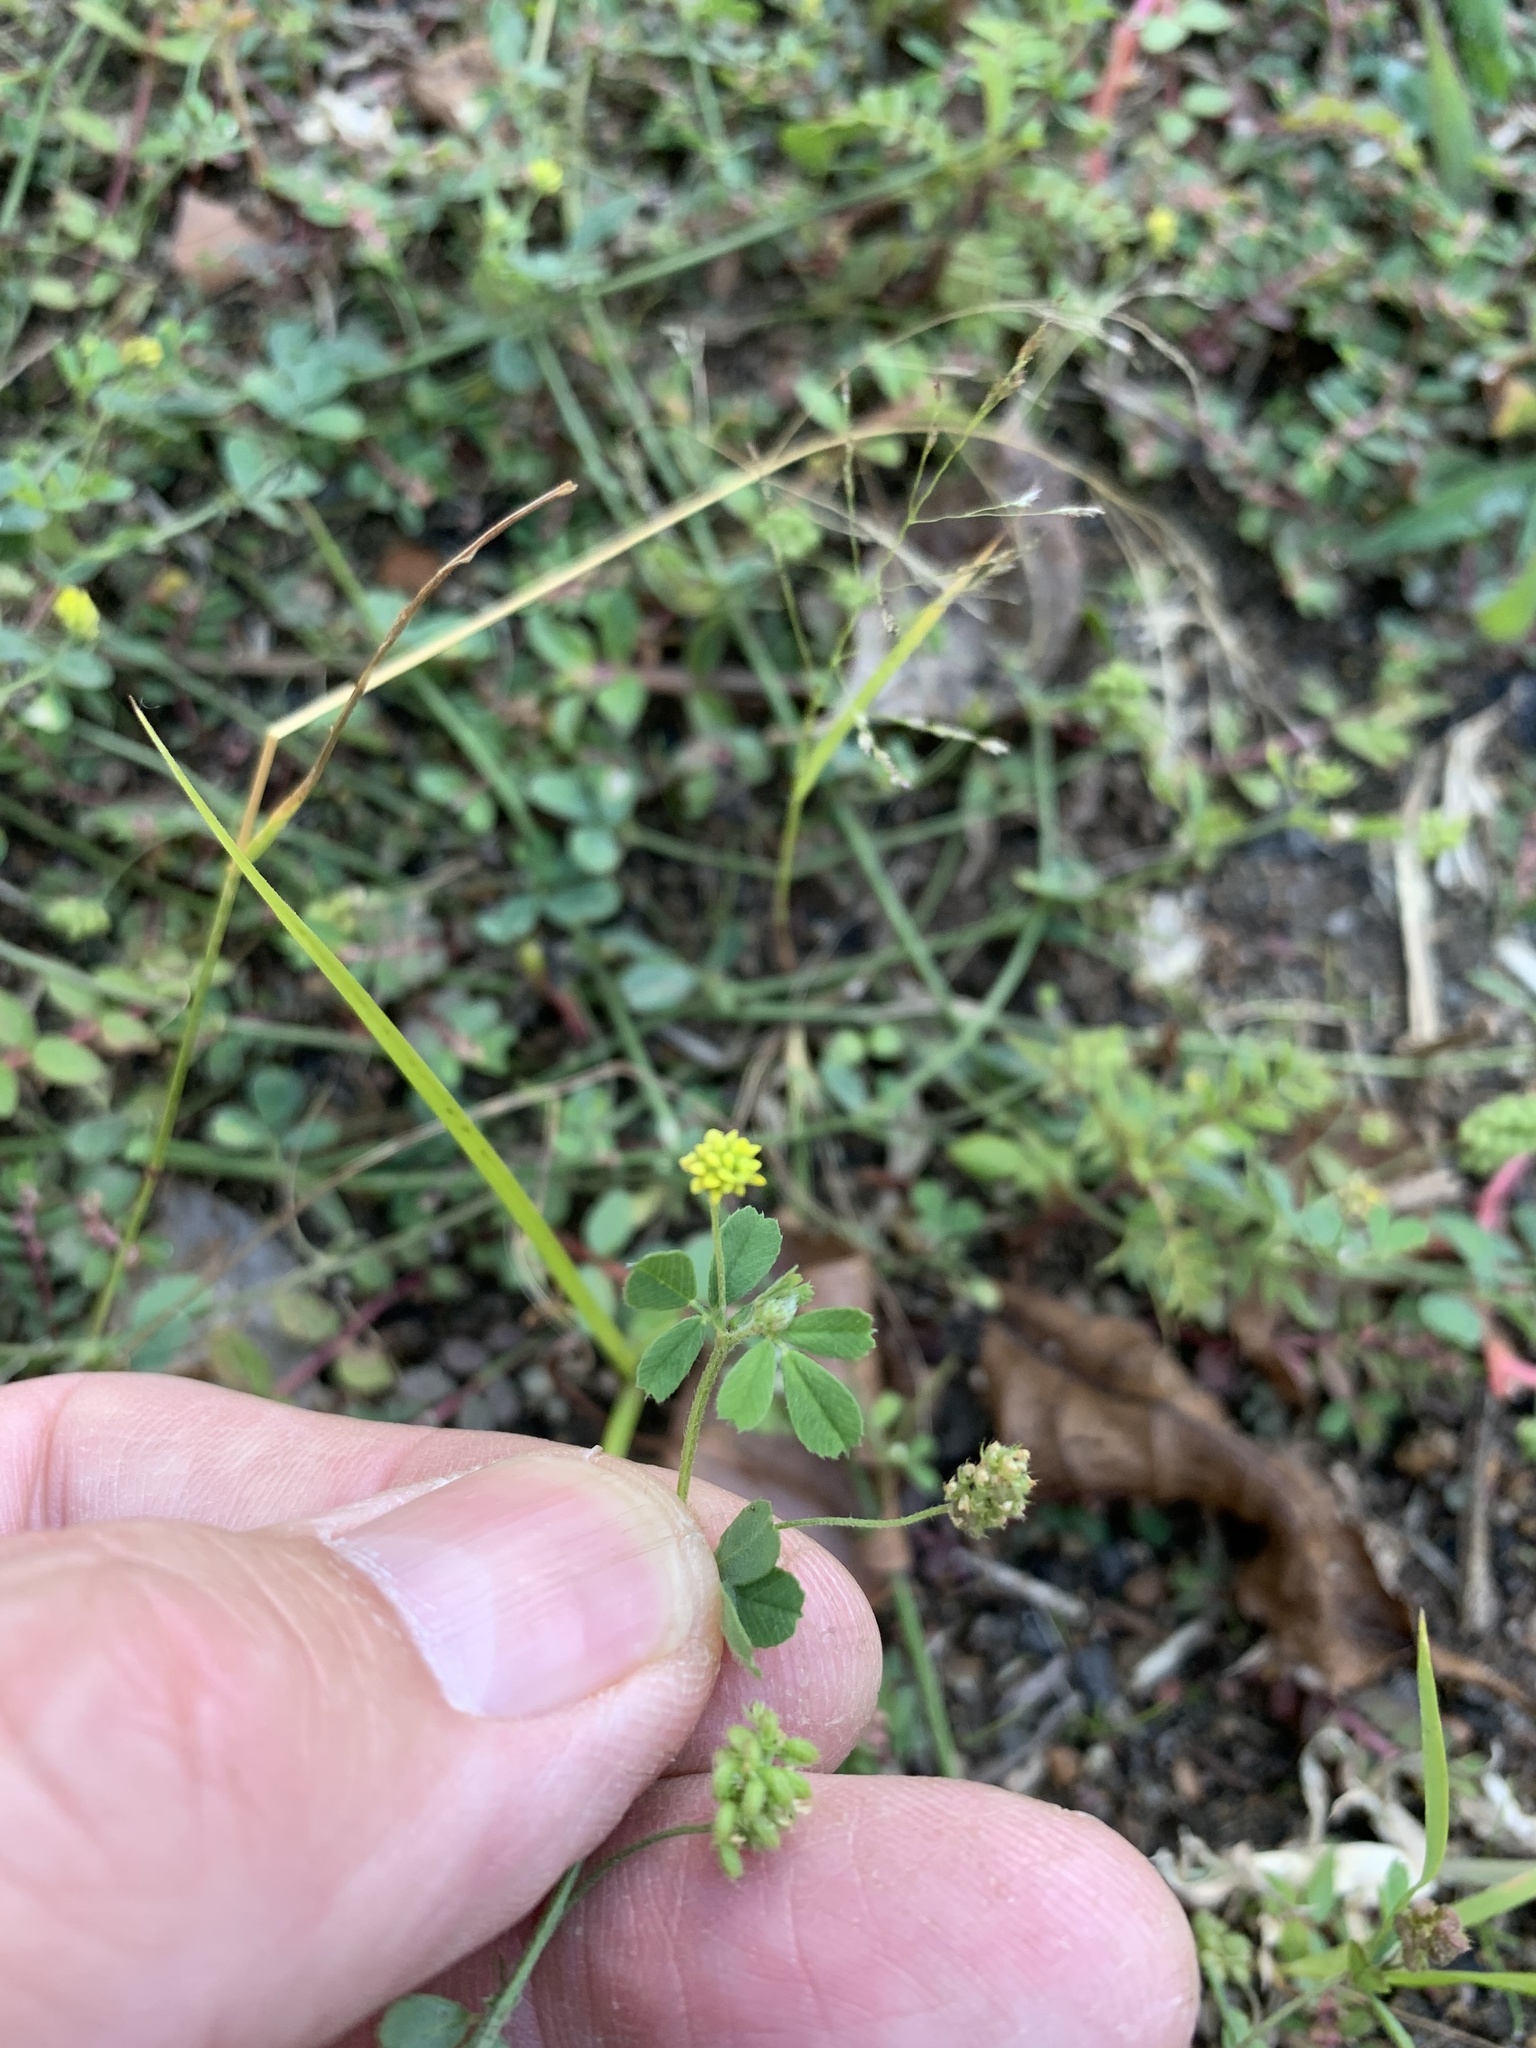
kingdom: Plantae
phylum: Tracheophyta
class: Magnoliopsida
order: Fabales
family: Fabaceae
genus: Medicago
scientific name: Medicago lupulina
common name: Black medick
